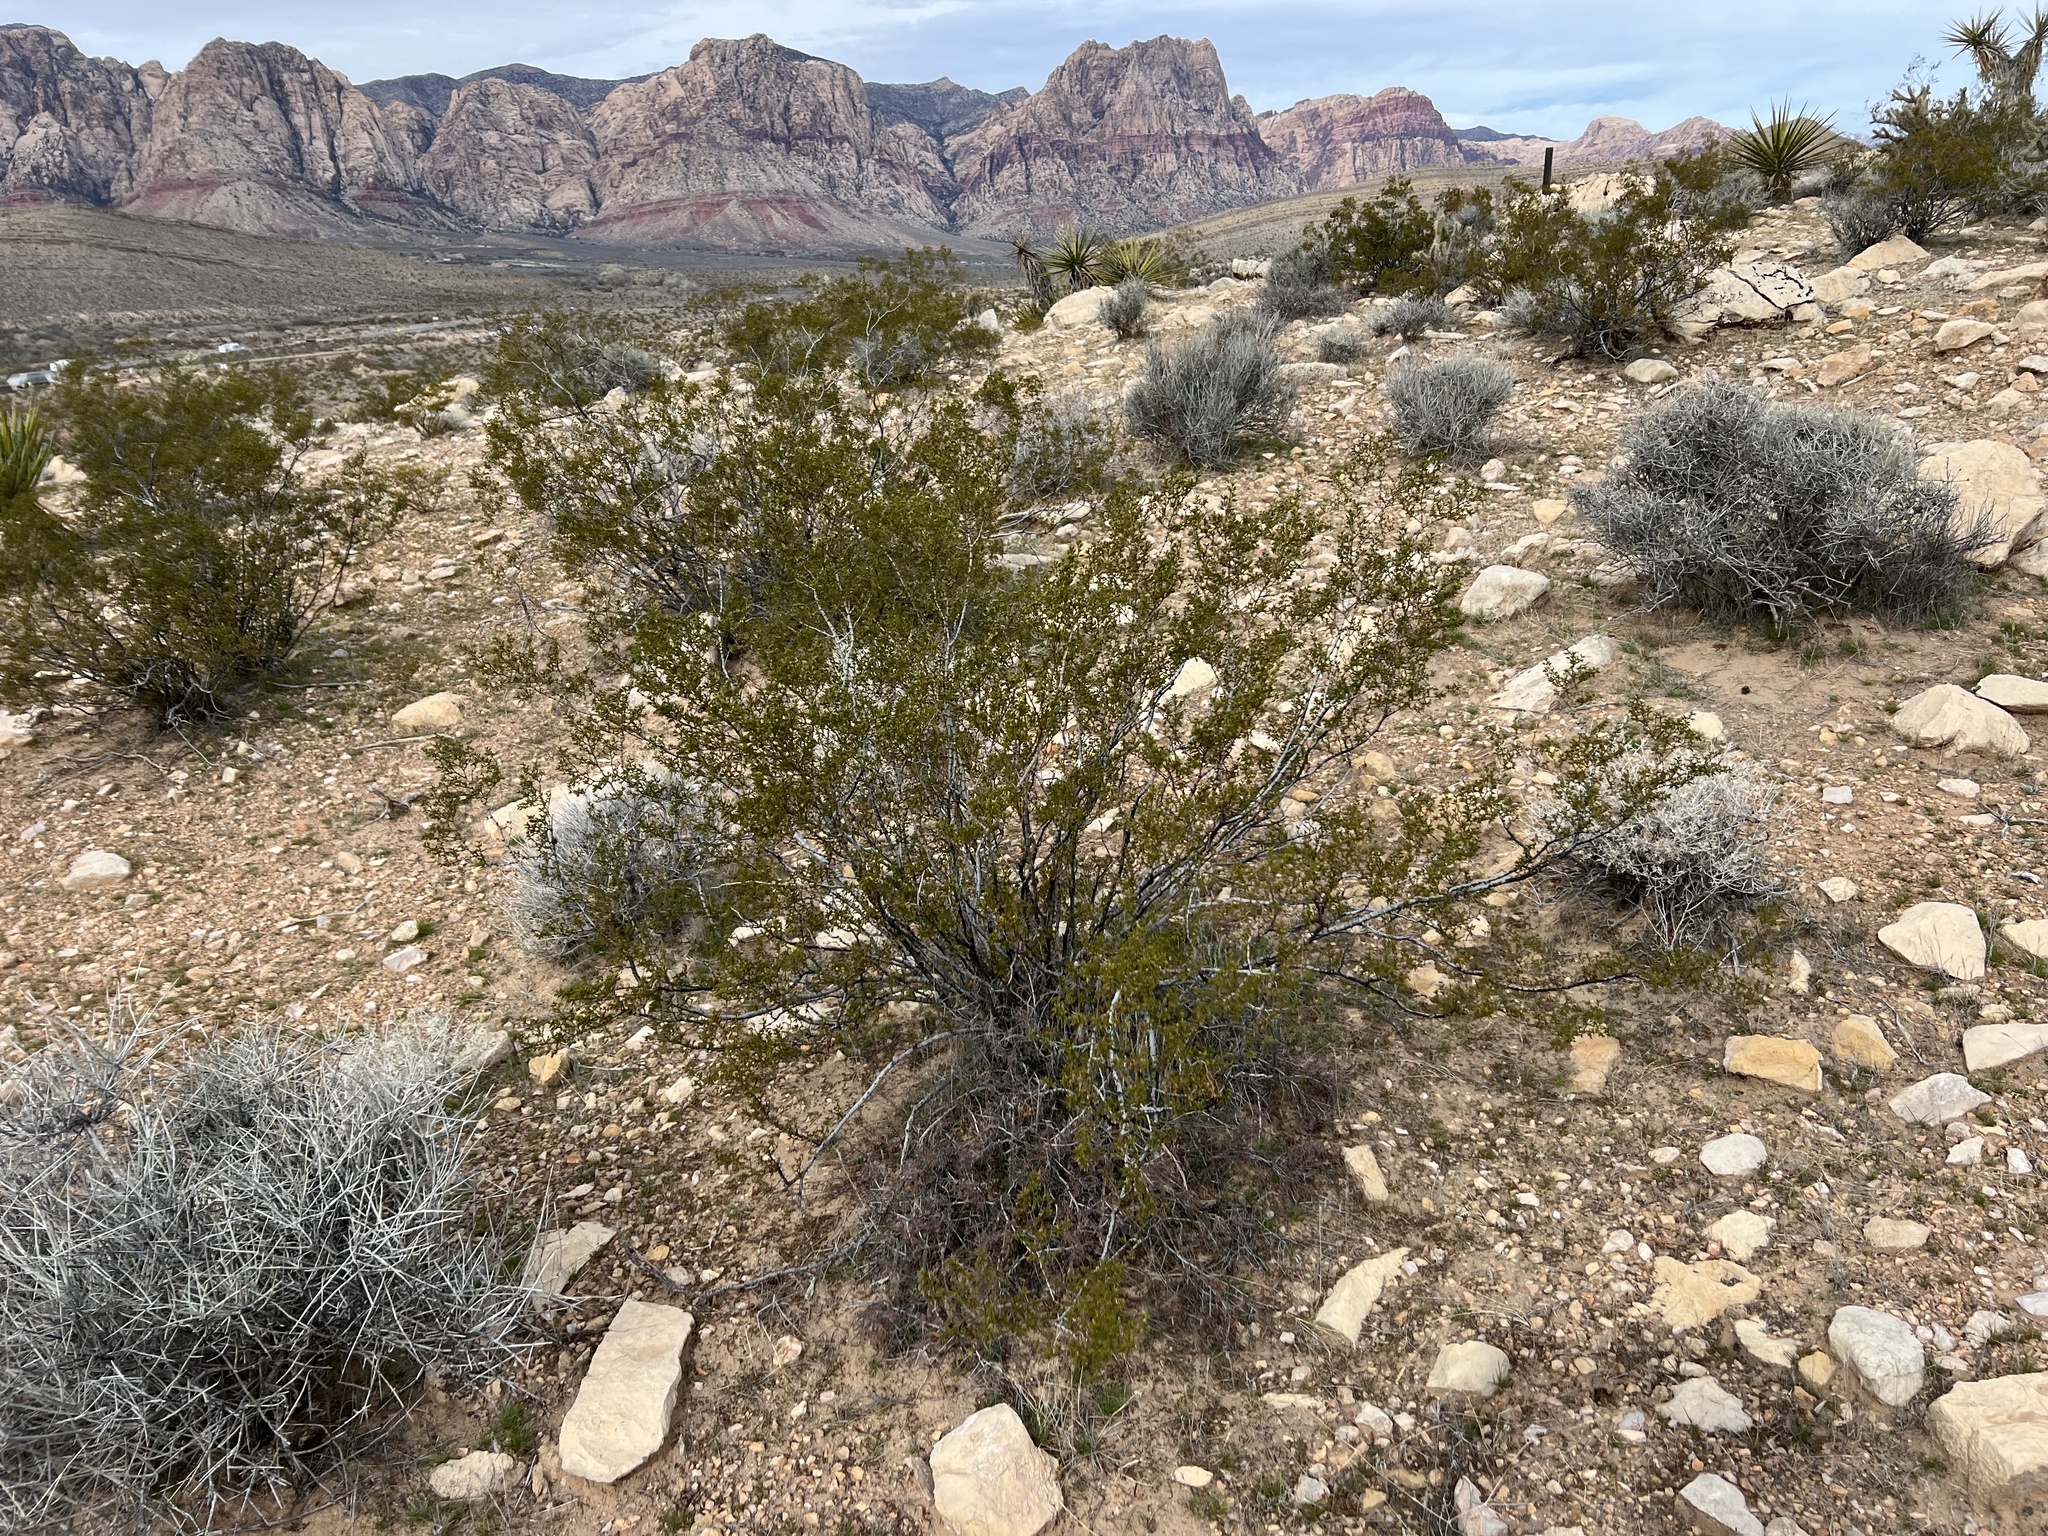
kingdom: Plantae
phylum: Tracheophyta
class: Magnoliopsida
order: Zygophyllales
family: Zygophyllaceae
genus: Larrea
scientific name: Larrea tridentata
